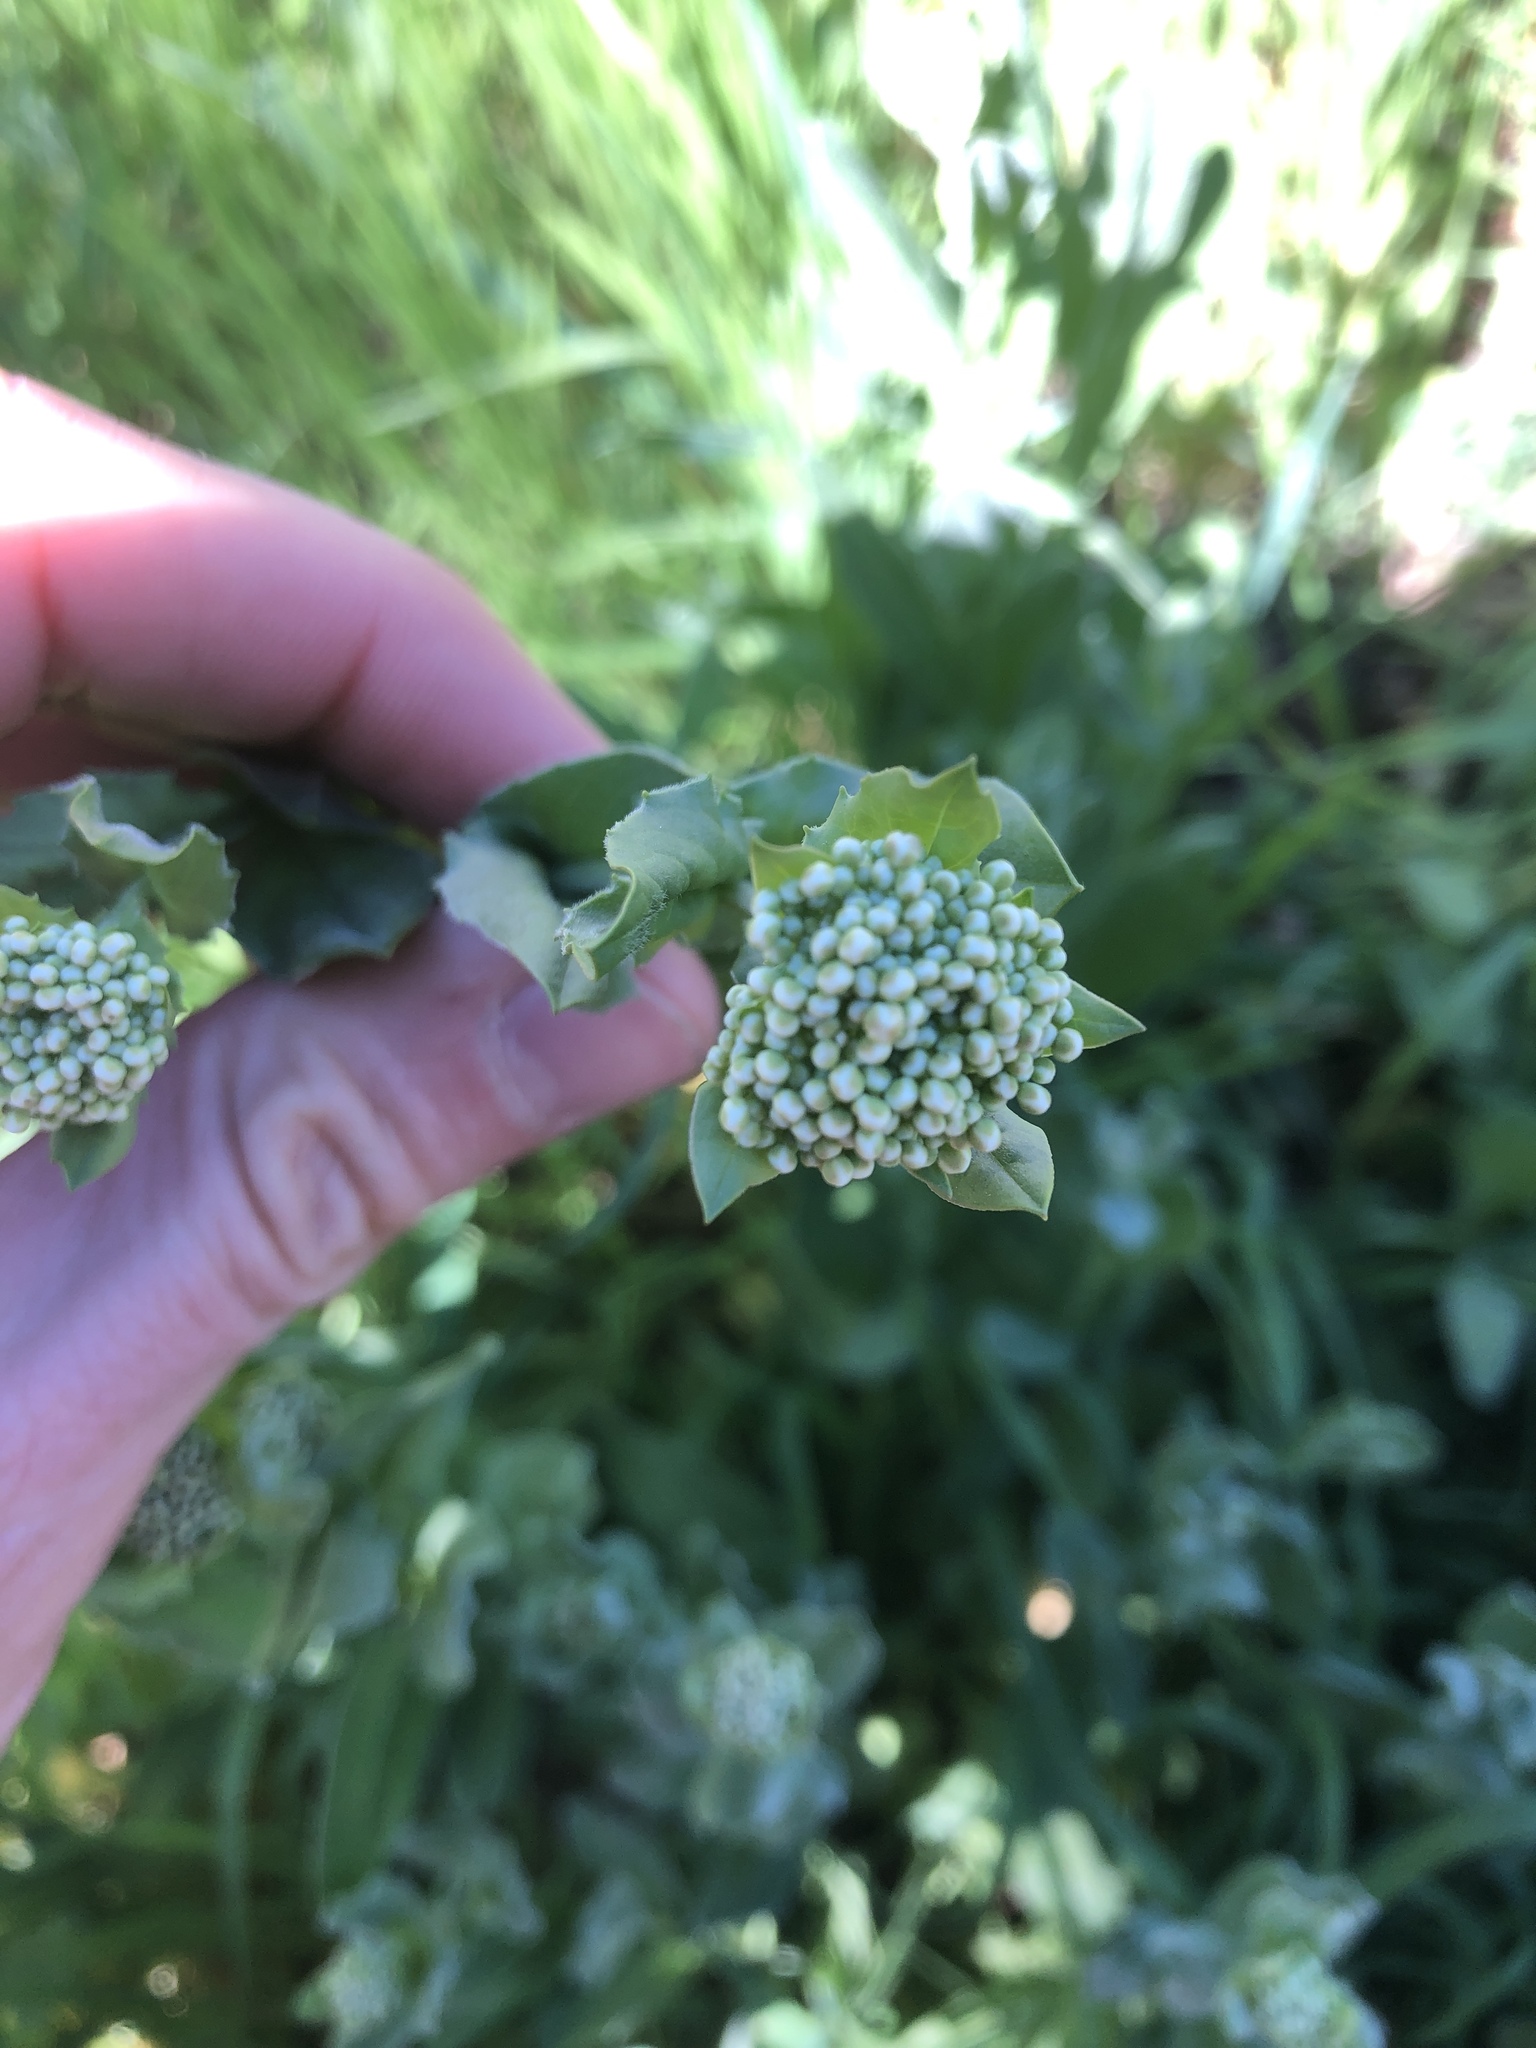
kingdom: Plantae
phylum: Tracheophyta
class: Magnoliopsida
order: Brassicales
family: Brassicaceae
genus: Lepidium
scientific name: Lepidium draba
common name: Hoary cress
